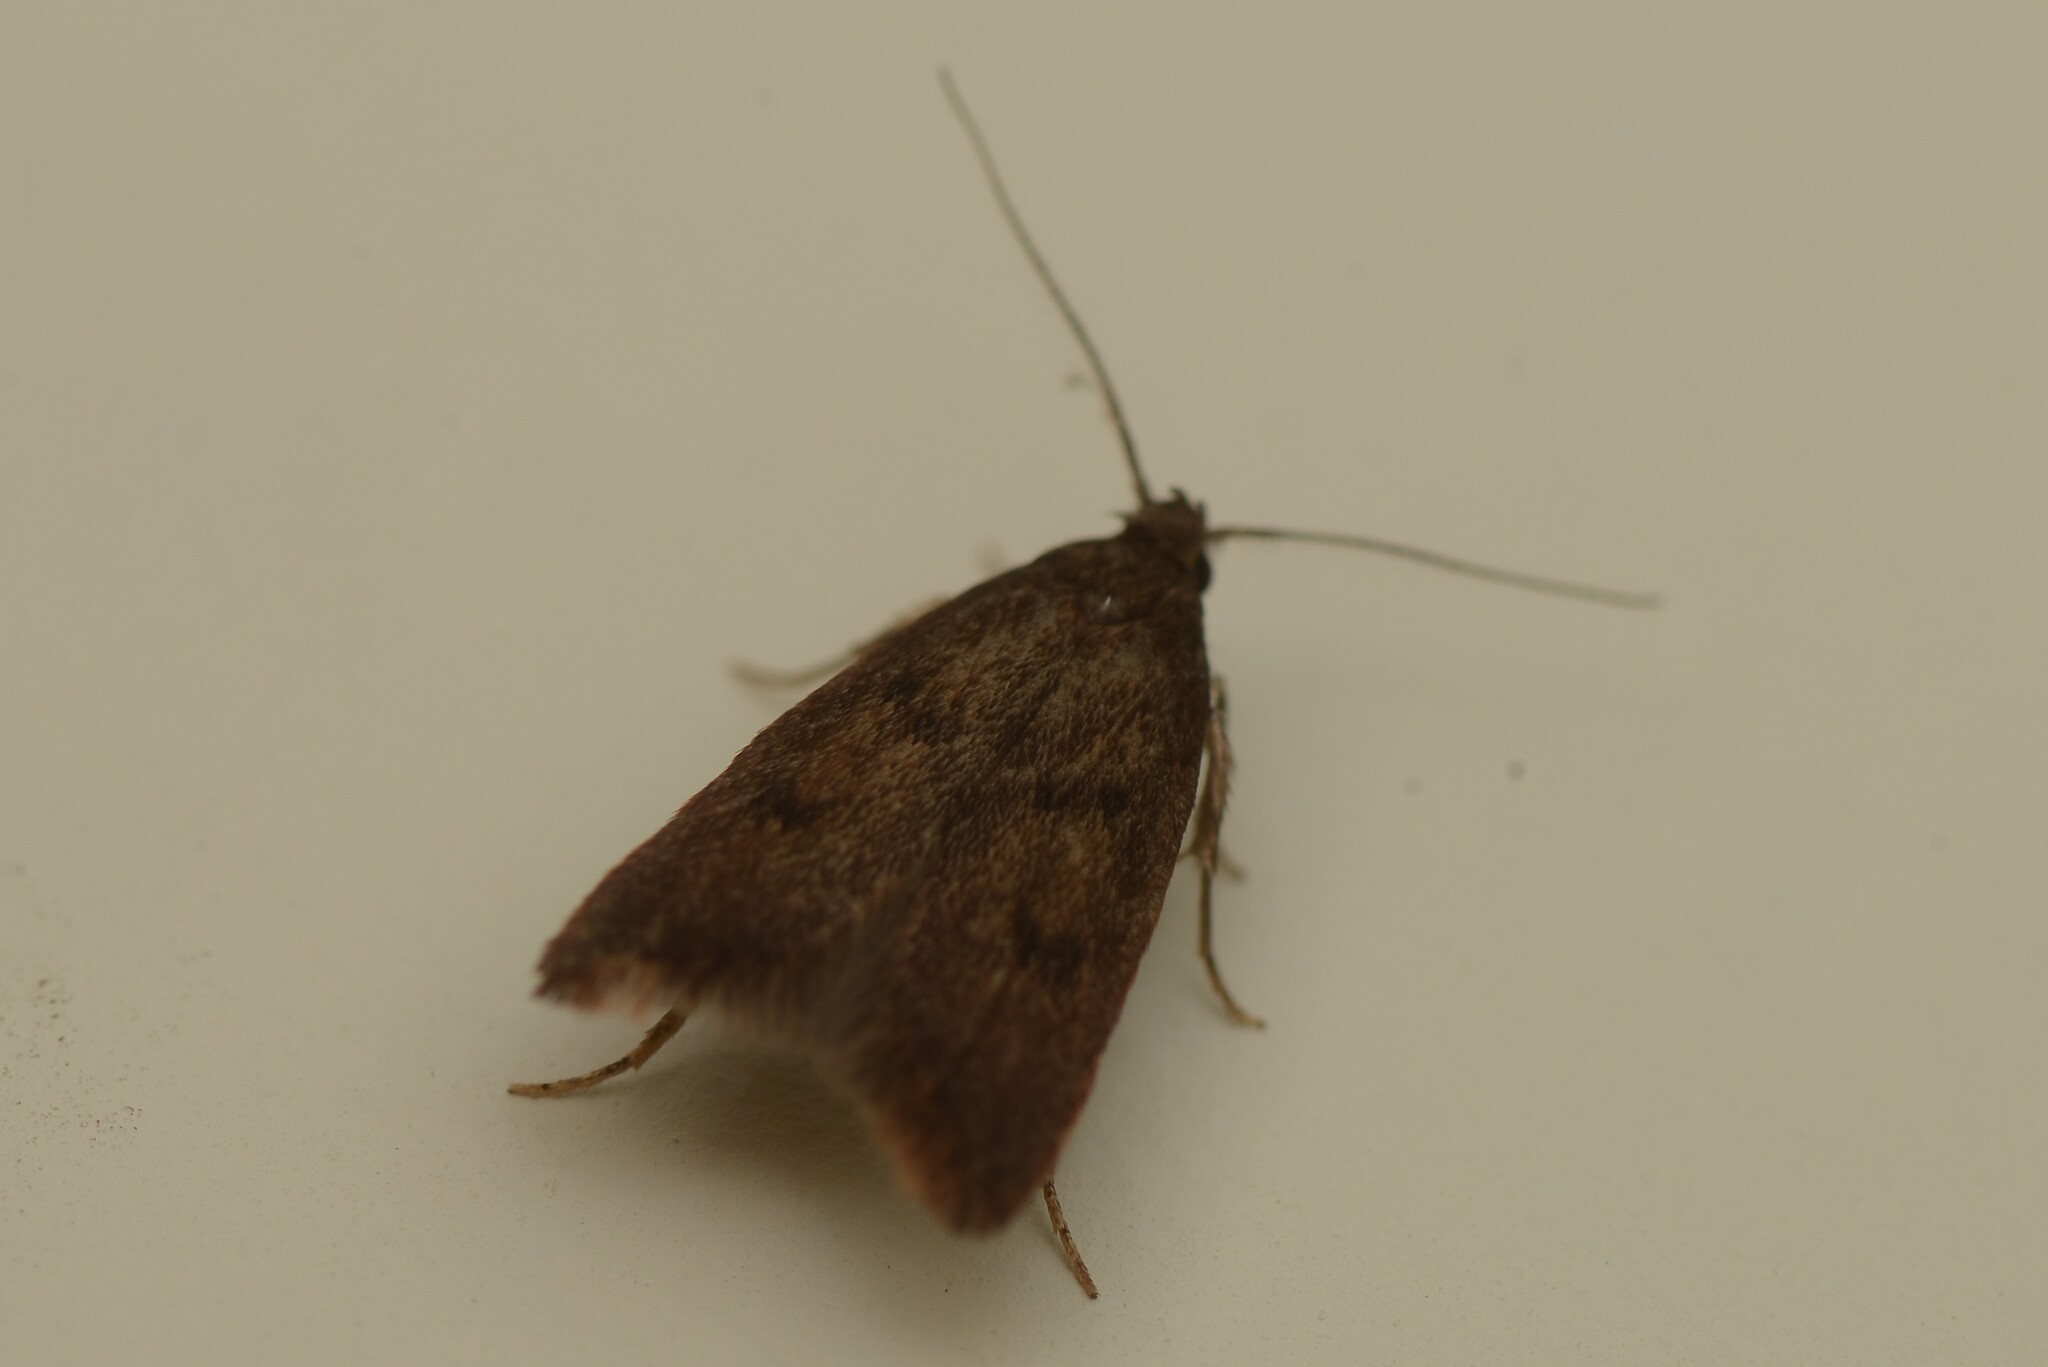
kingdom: Animalia
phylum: Arthropoda
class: Insecta
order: Lepidoptera
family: Oecophoridae
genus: Tachystola
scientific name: Tachystola acroxantha
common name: Ruddy streak
